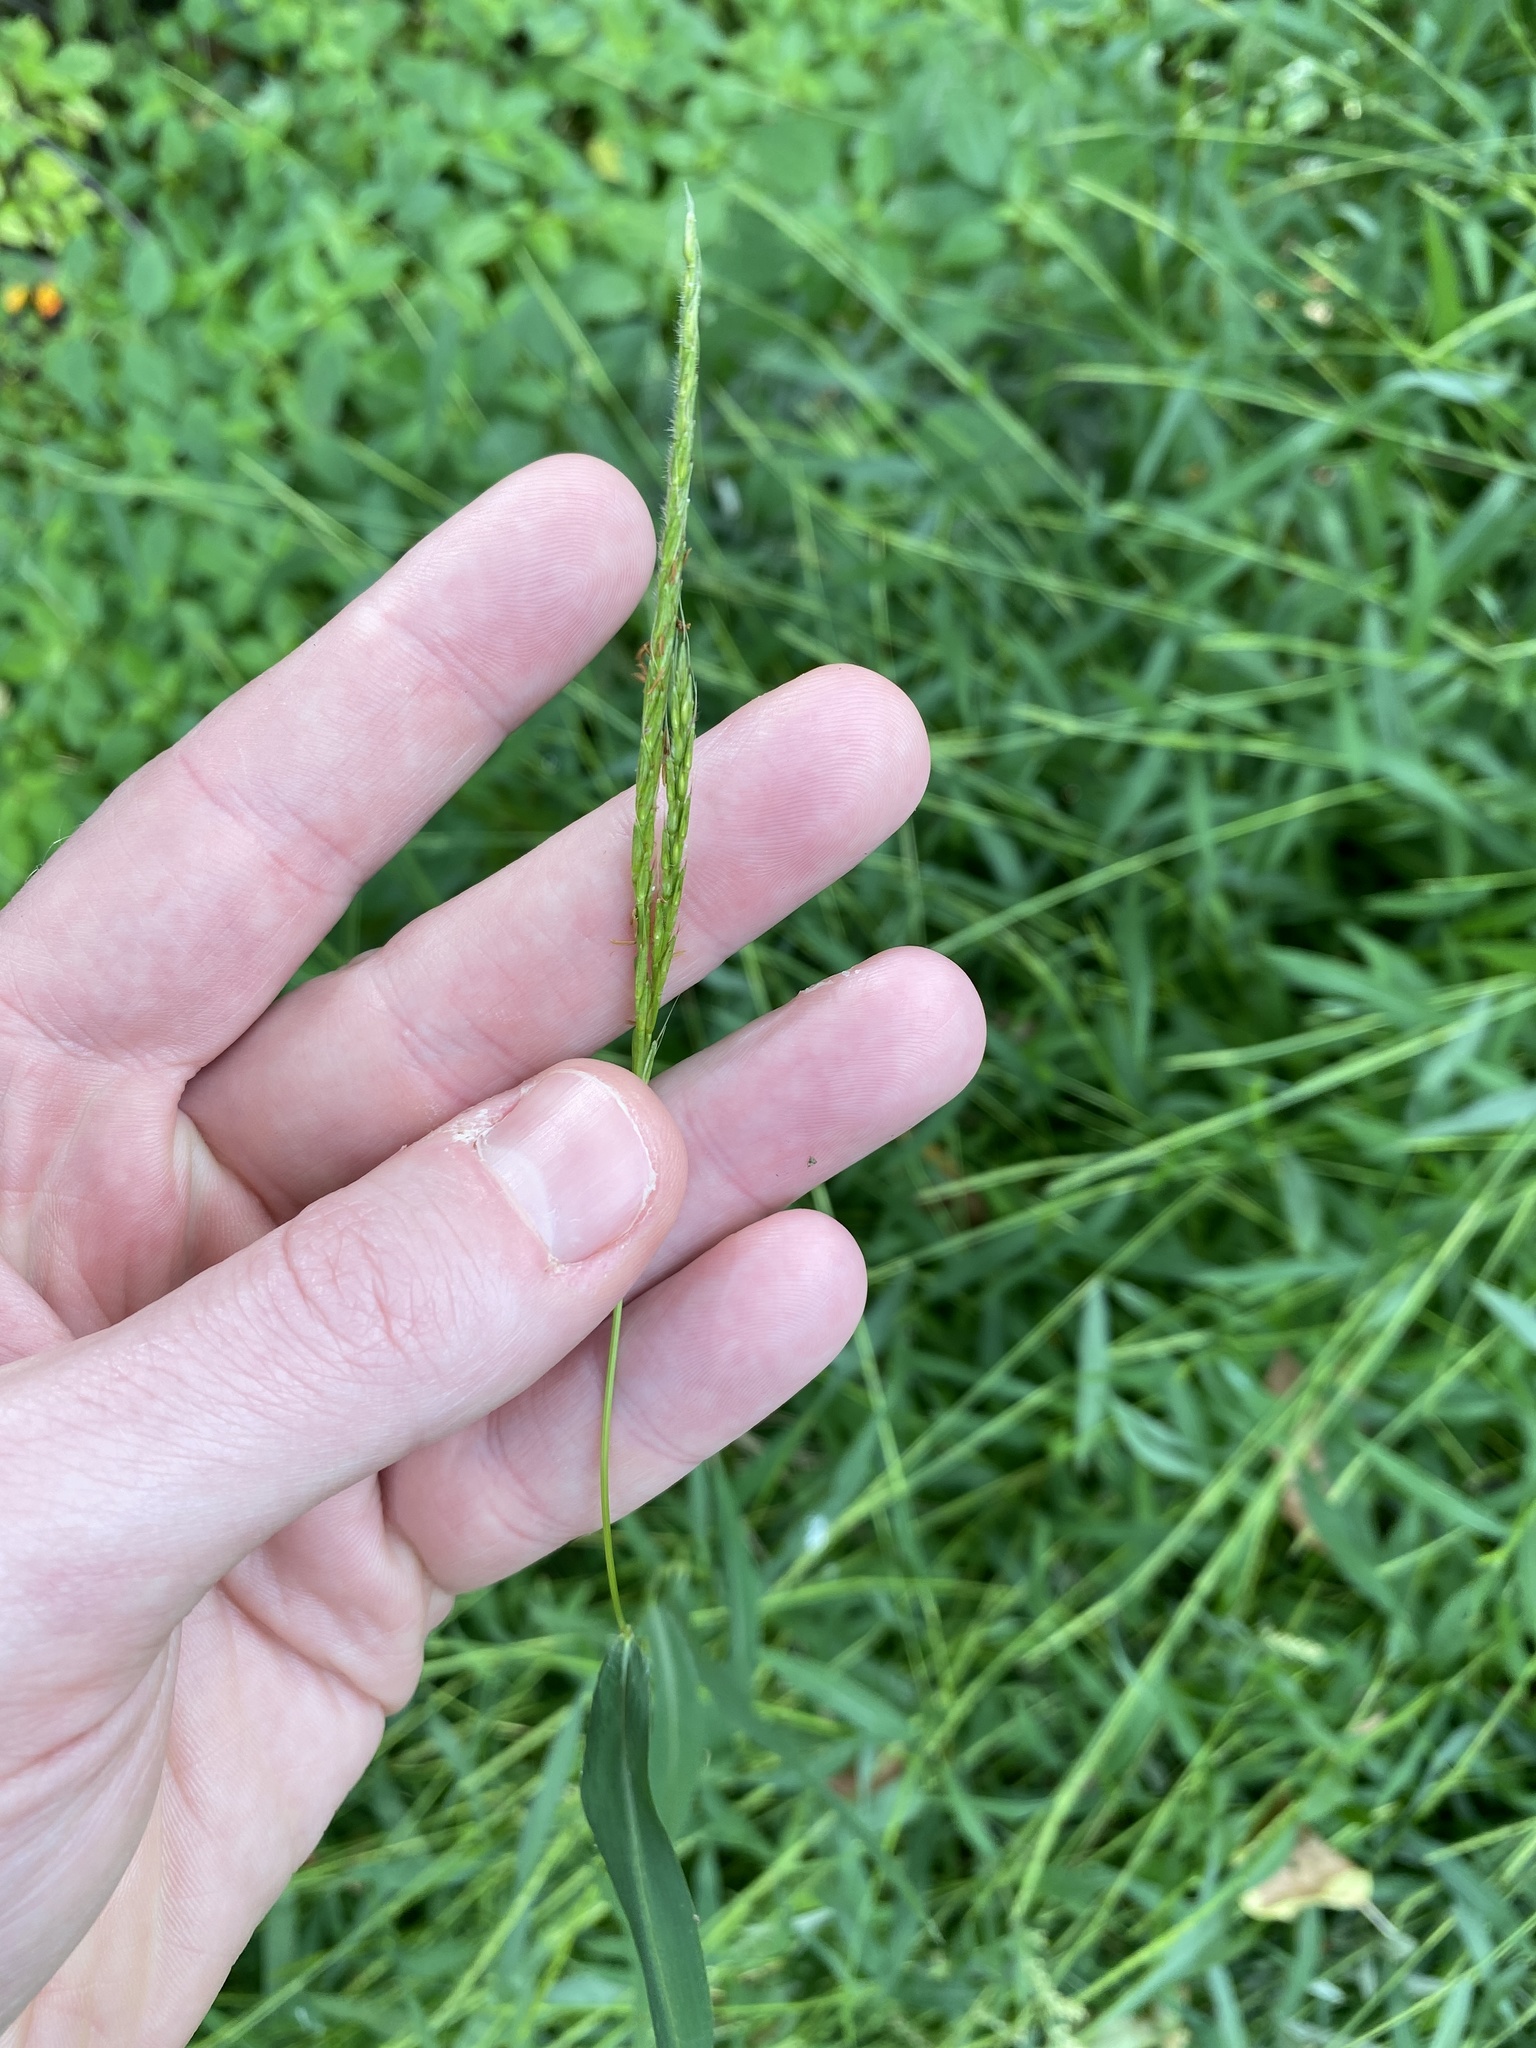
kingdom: Plantae
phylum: Tracheophyta
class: Liliopsida
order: Poales
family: Poaceae
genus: Microstegium
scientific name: Microstegium vimineum
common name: Japanese stiltgrass
